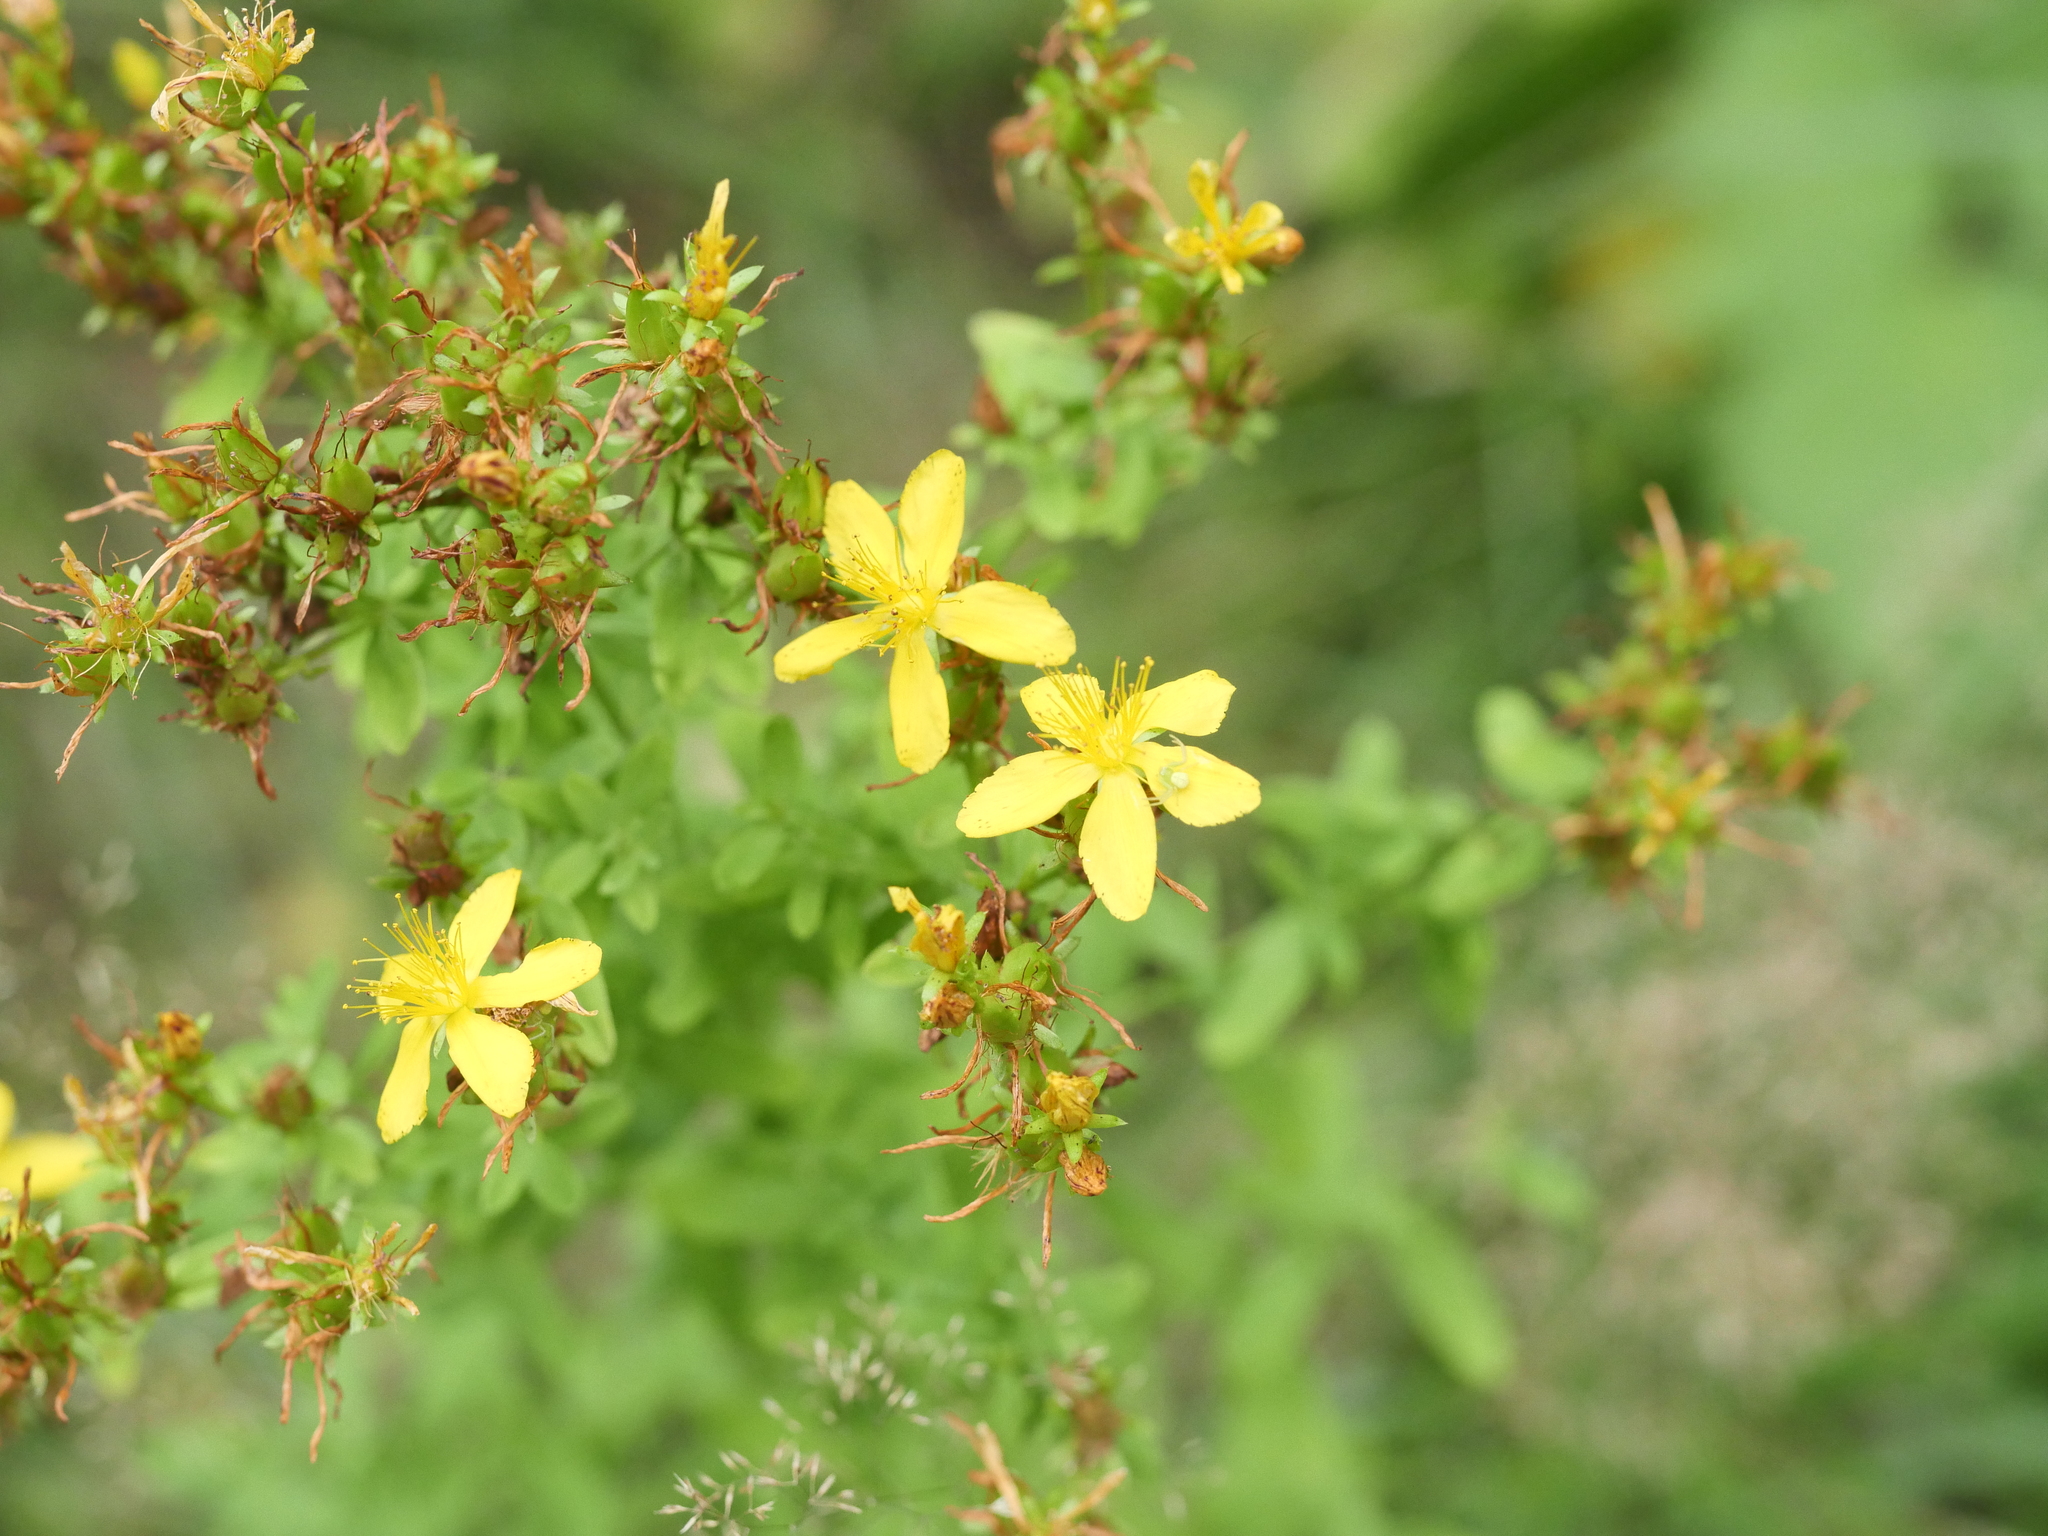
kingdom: Plantae
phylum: Tracheophyta
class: Magnoliopsida
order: Malpighiales
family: Hypericaceae
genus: Hypericum
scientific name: Hypericum perforatum
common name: Common st. johnswort
